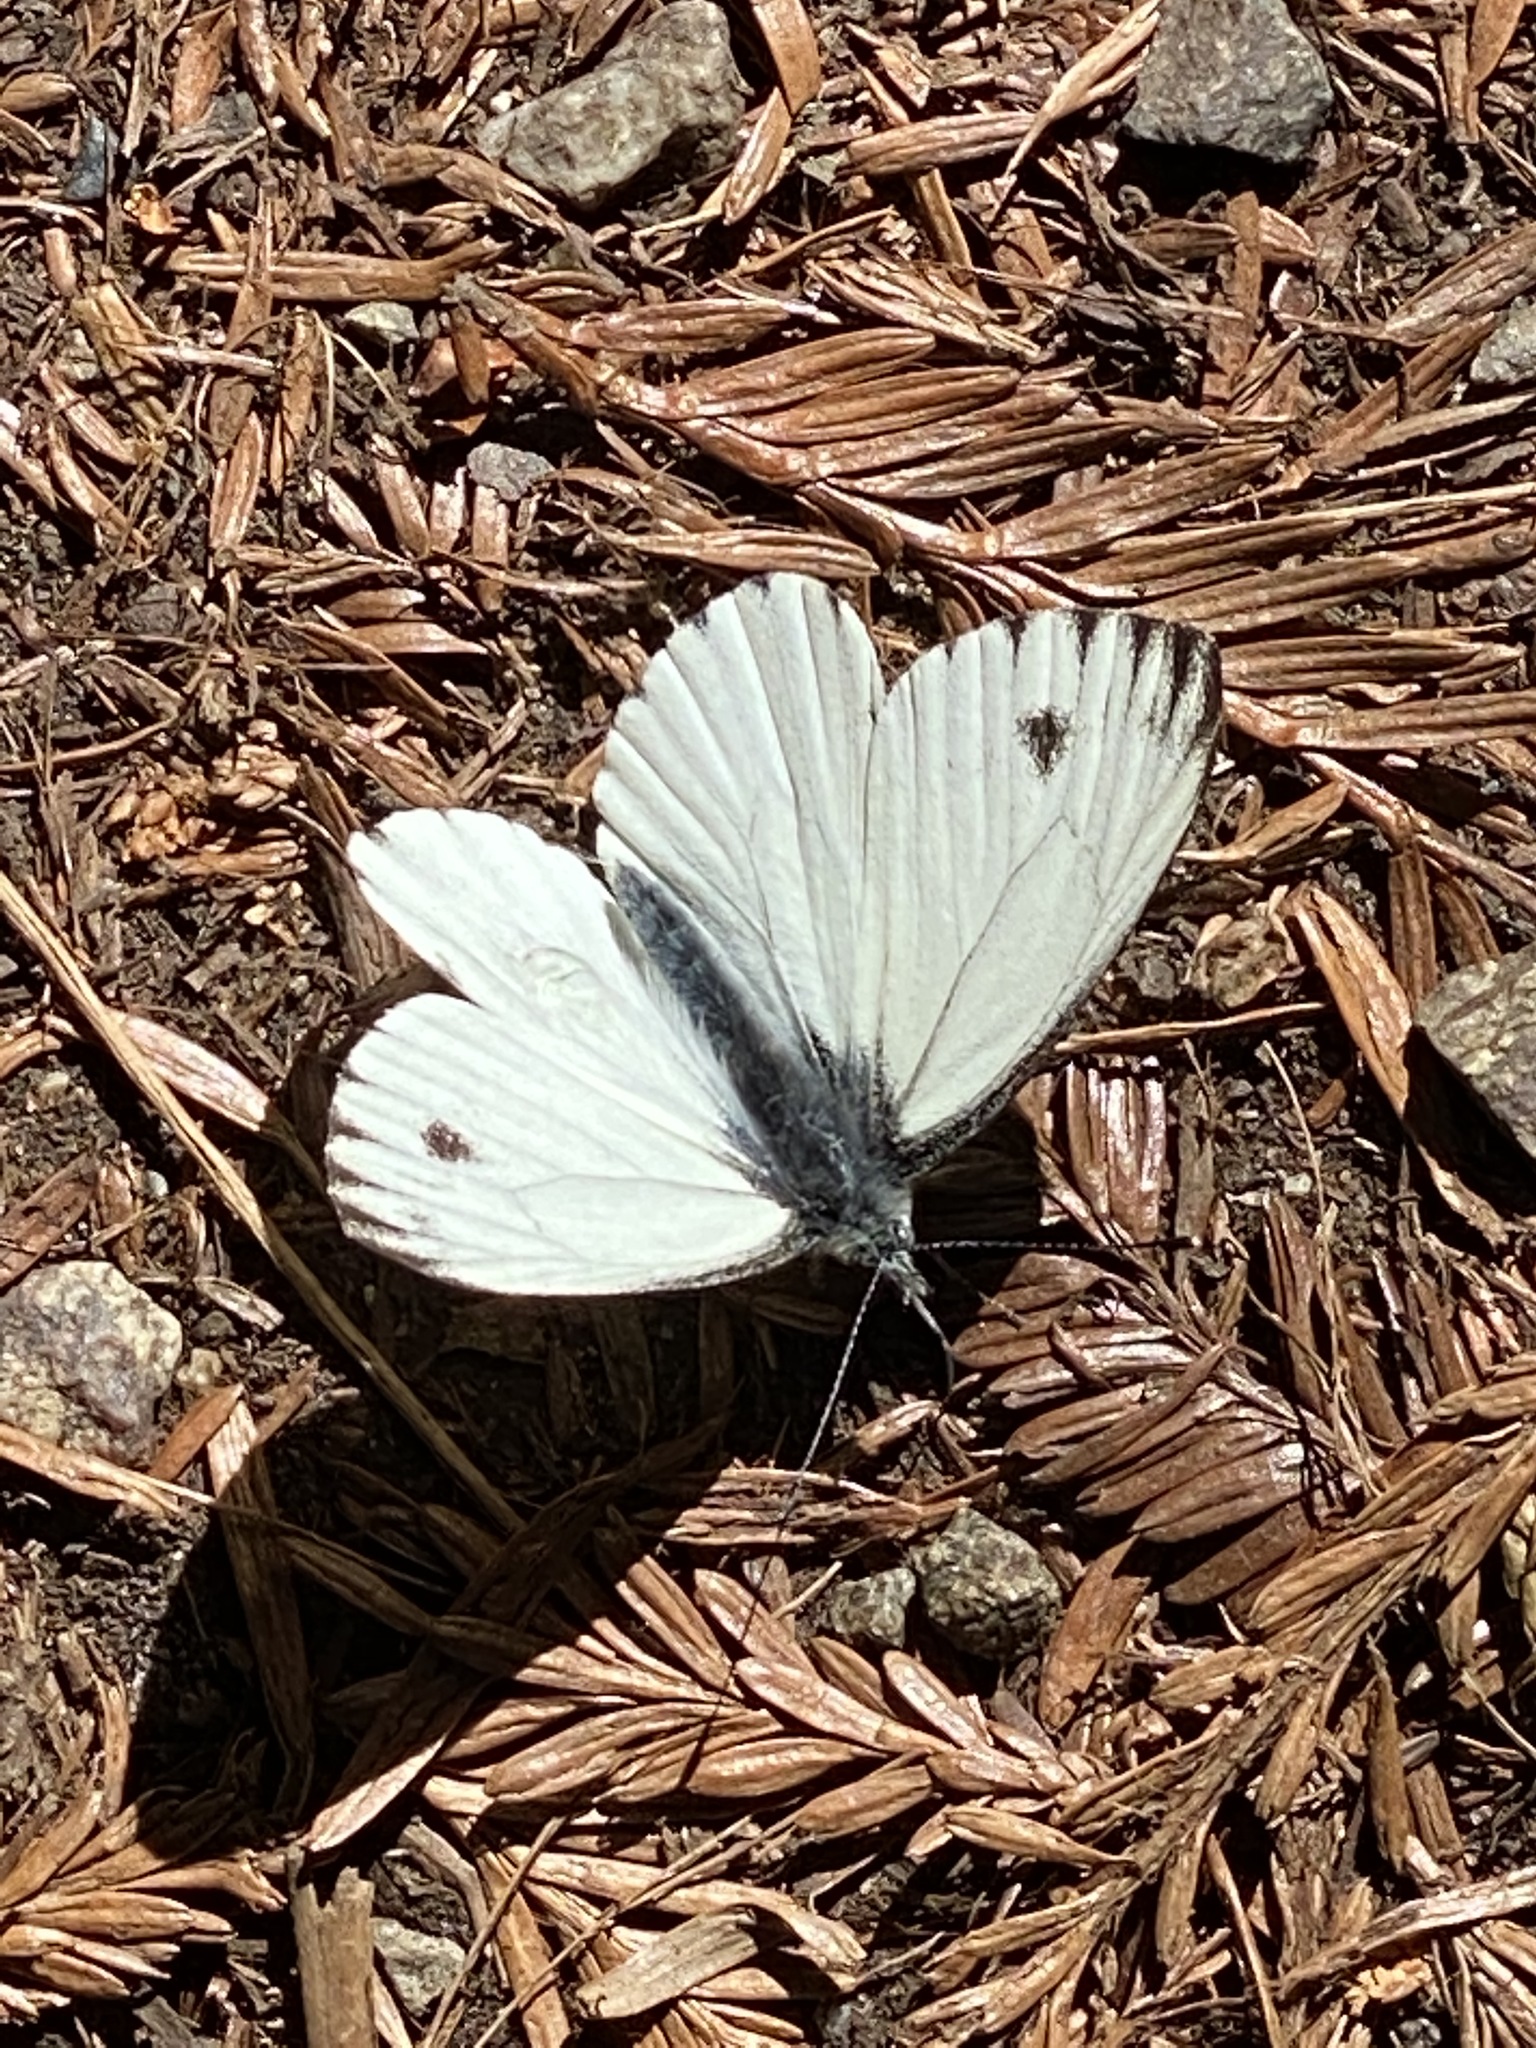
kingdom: Animalia
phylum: Arthropoda
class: Insecta
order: Lepidoptera
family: Pieridae
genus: Pieris
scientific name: Pieris marginalis
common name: Margined white
